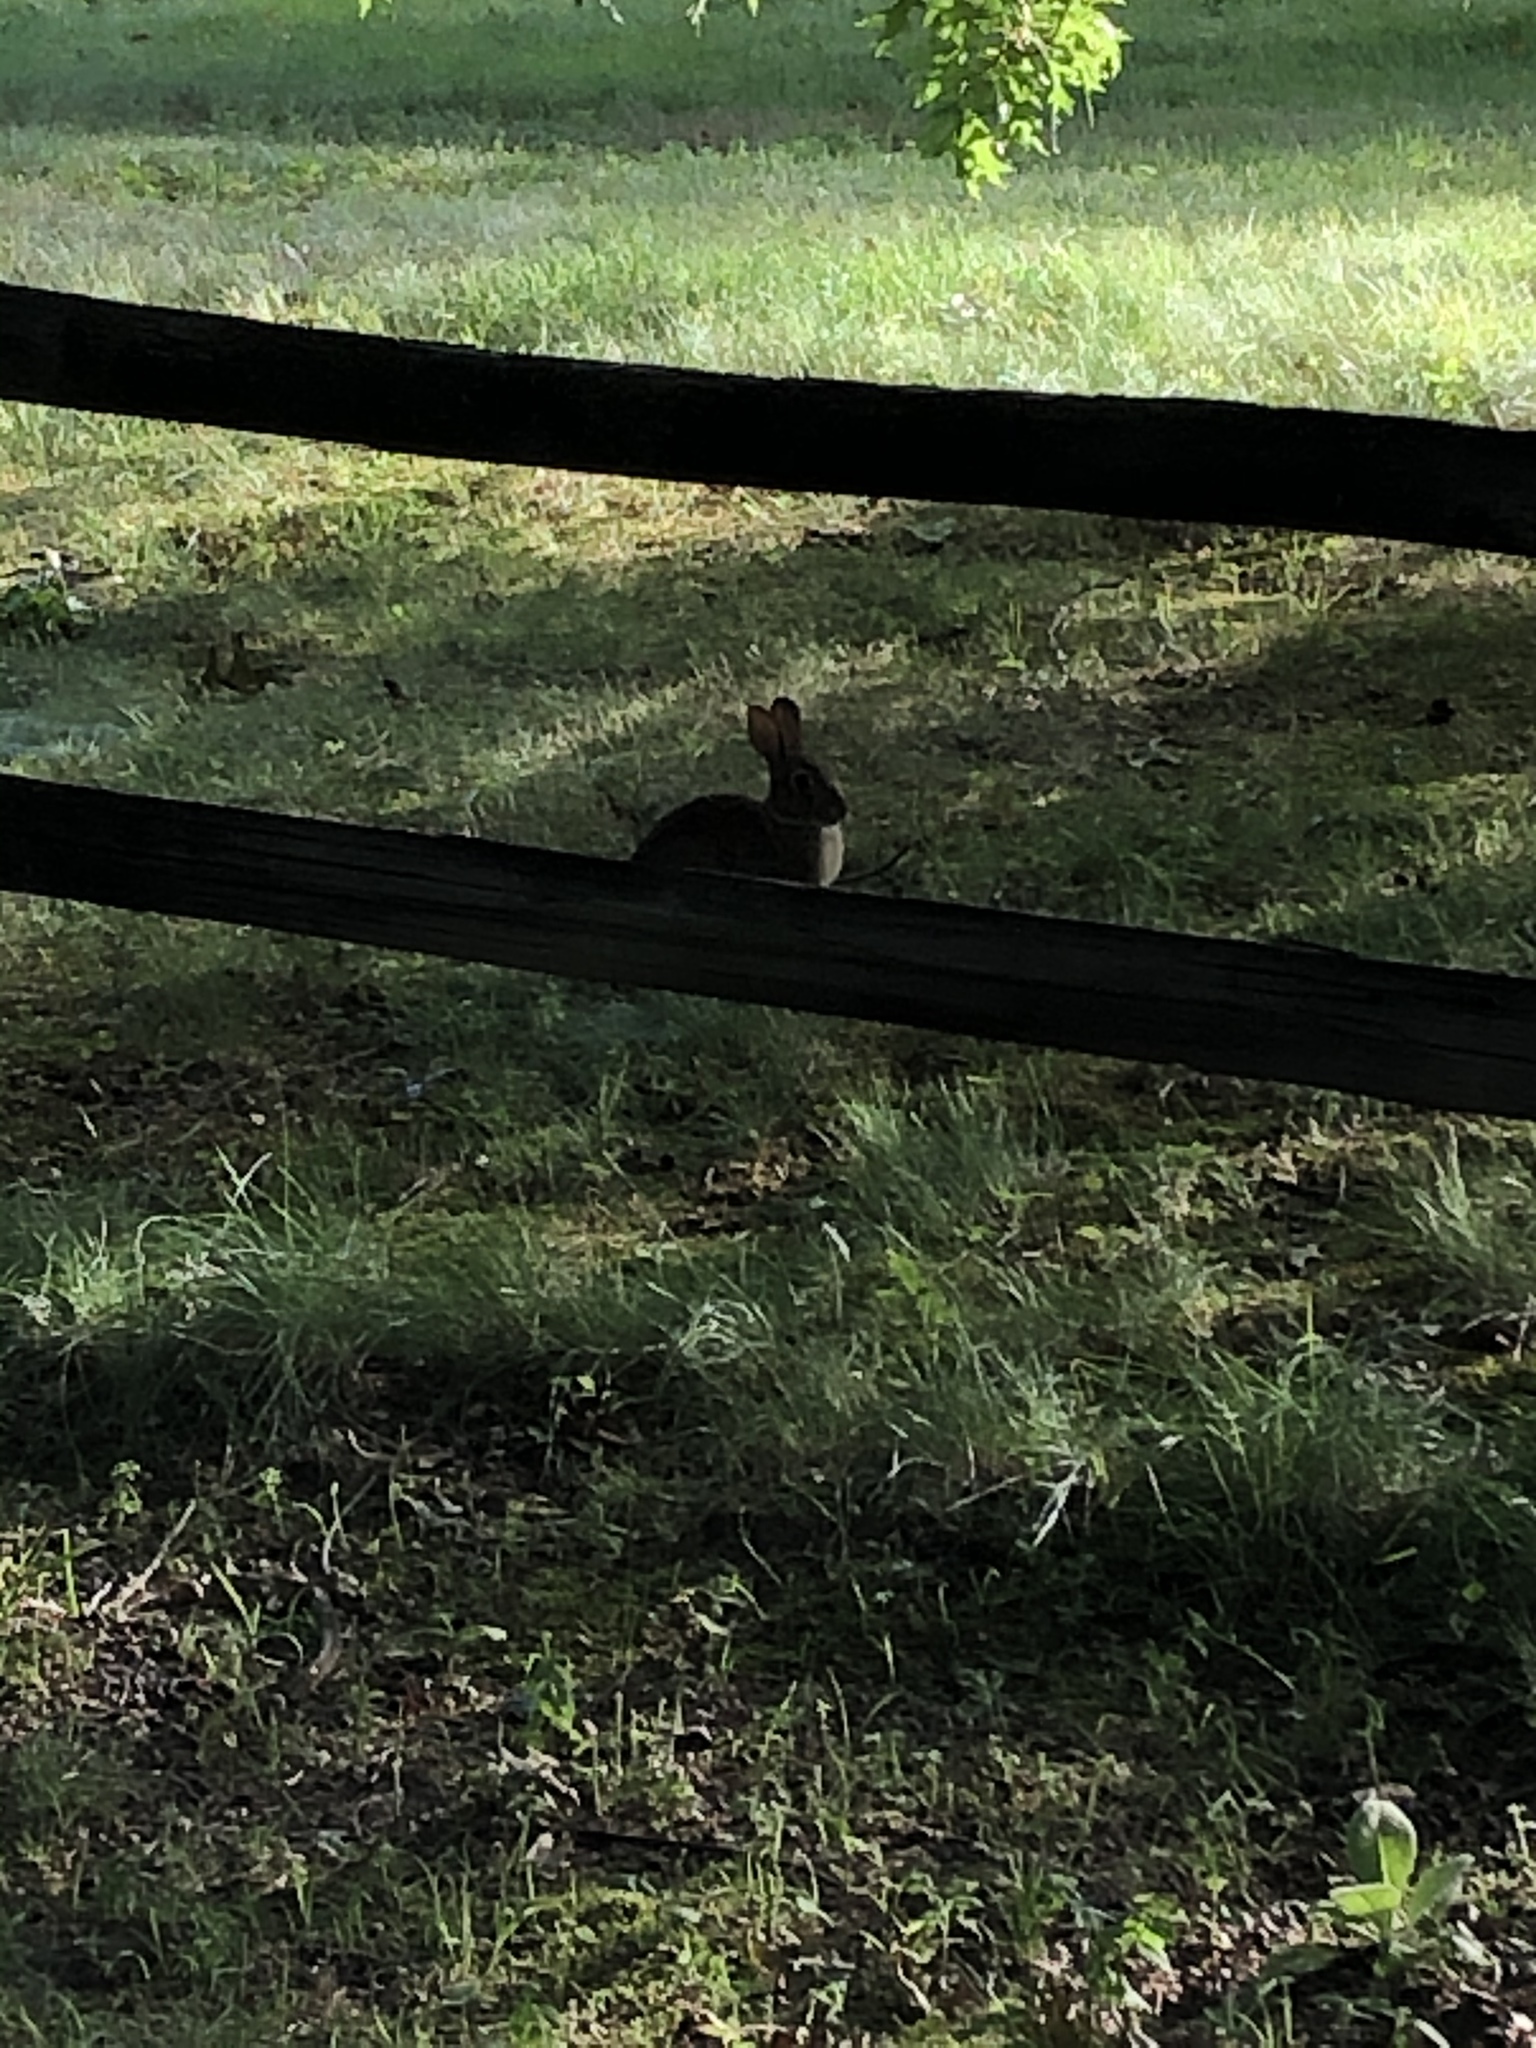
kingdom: Animalia
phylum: Chordata
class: Mammalia
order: Lagomorpha
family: Leporidae
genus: Sylvilagus
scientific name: Sylvilagus floridanus
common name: Eastern cottontail
